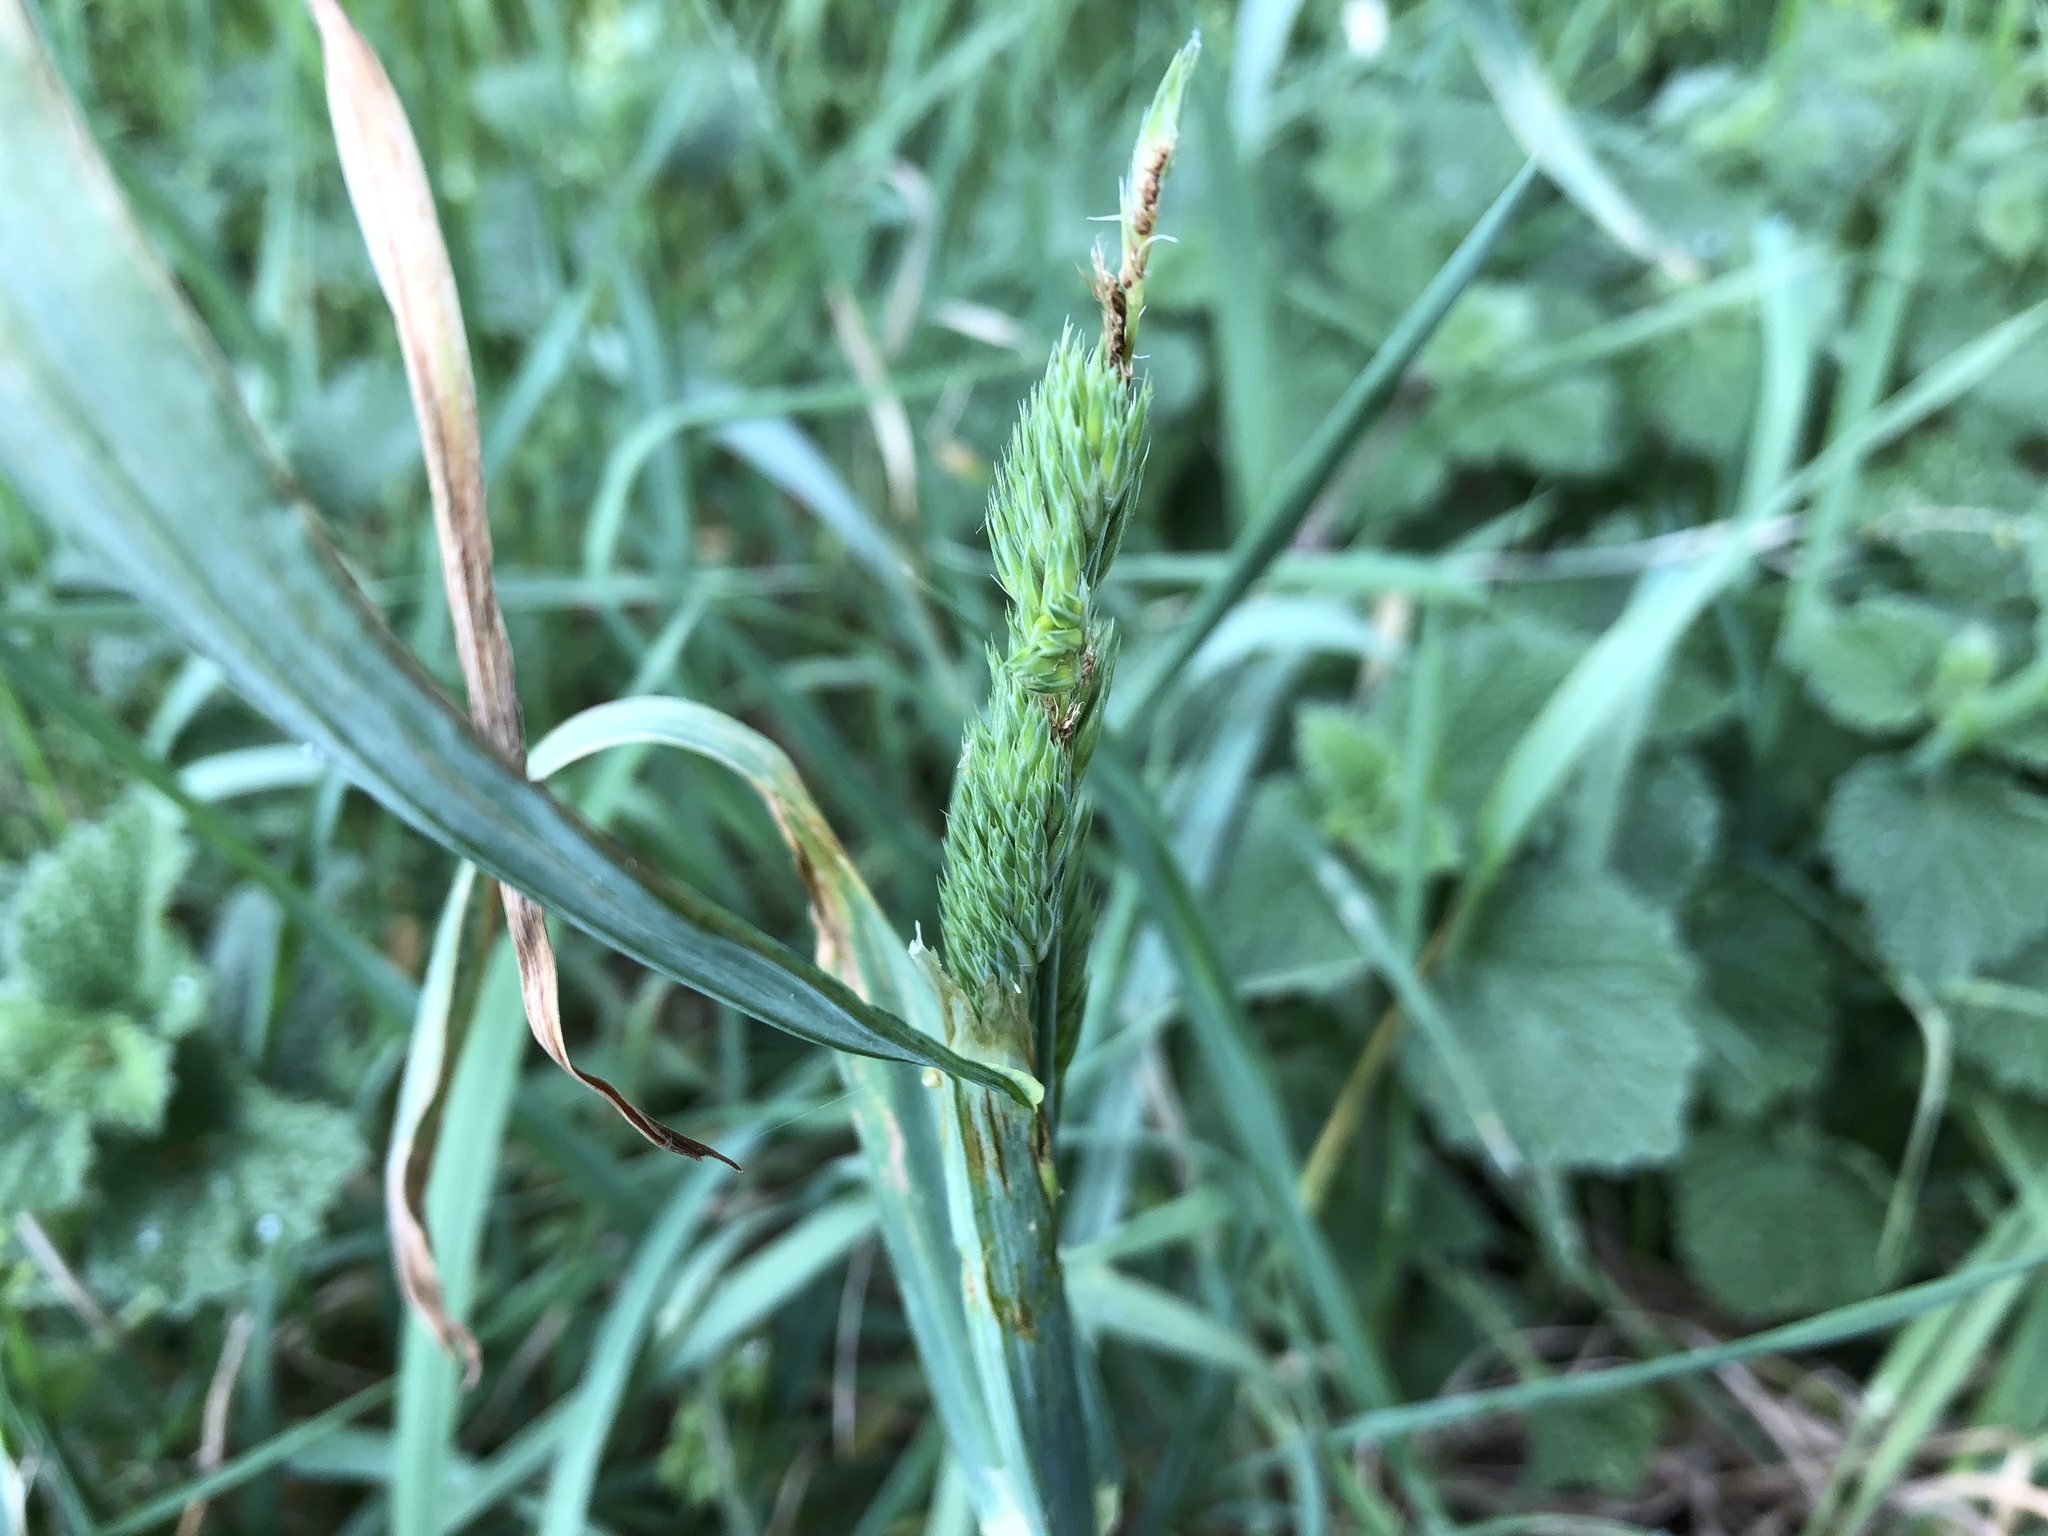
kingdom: Plantae
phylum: Tracheophyta
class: Liliopsida
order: Poales
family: Poaceae
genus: Dactylis
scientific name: Dactylis glomerata
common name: Orchardgrass
